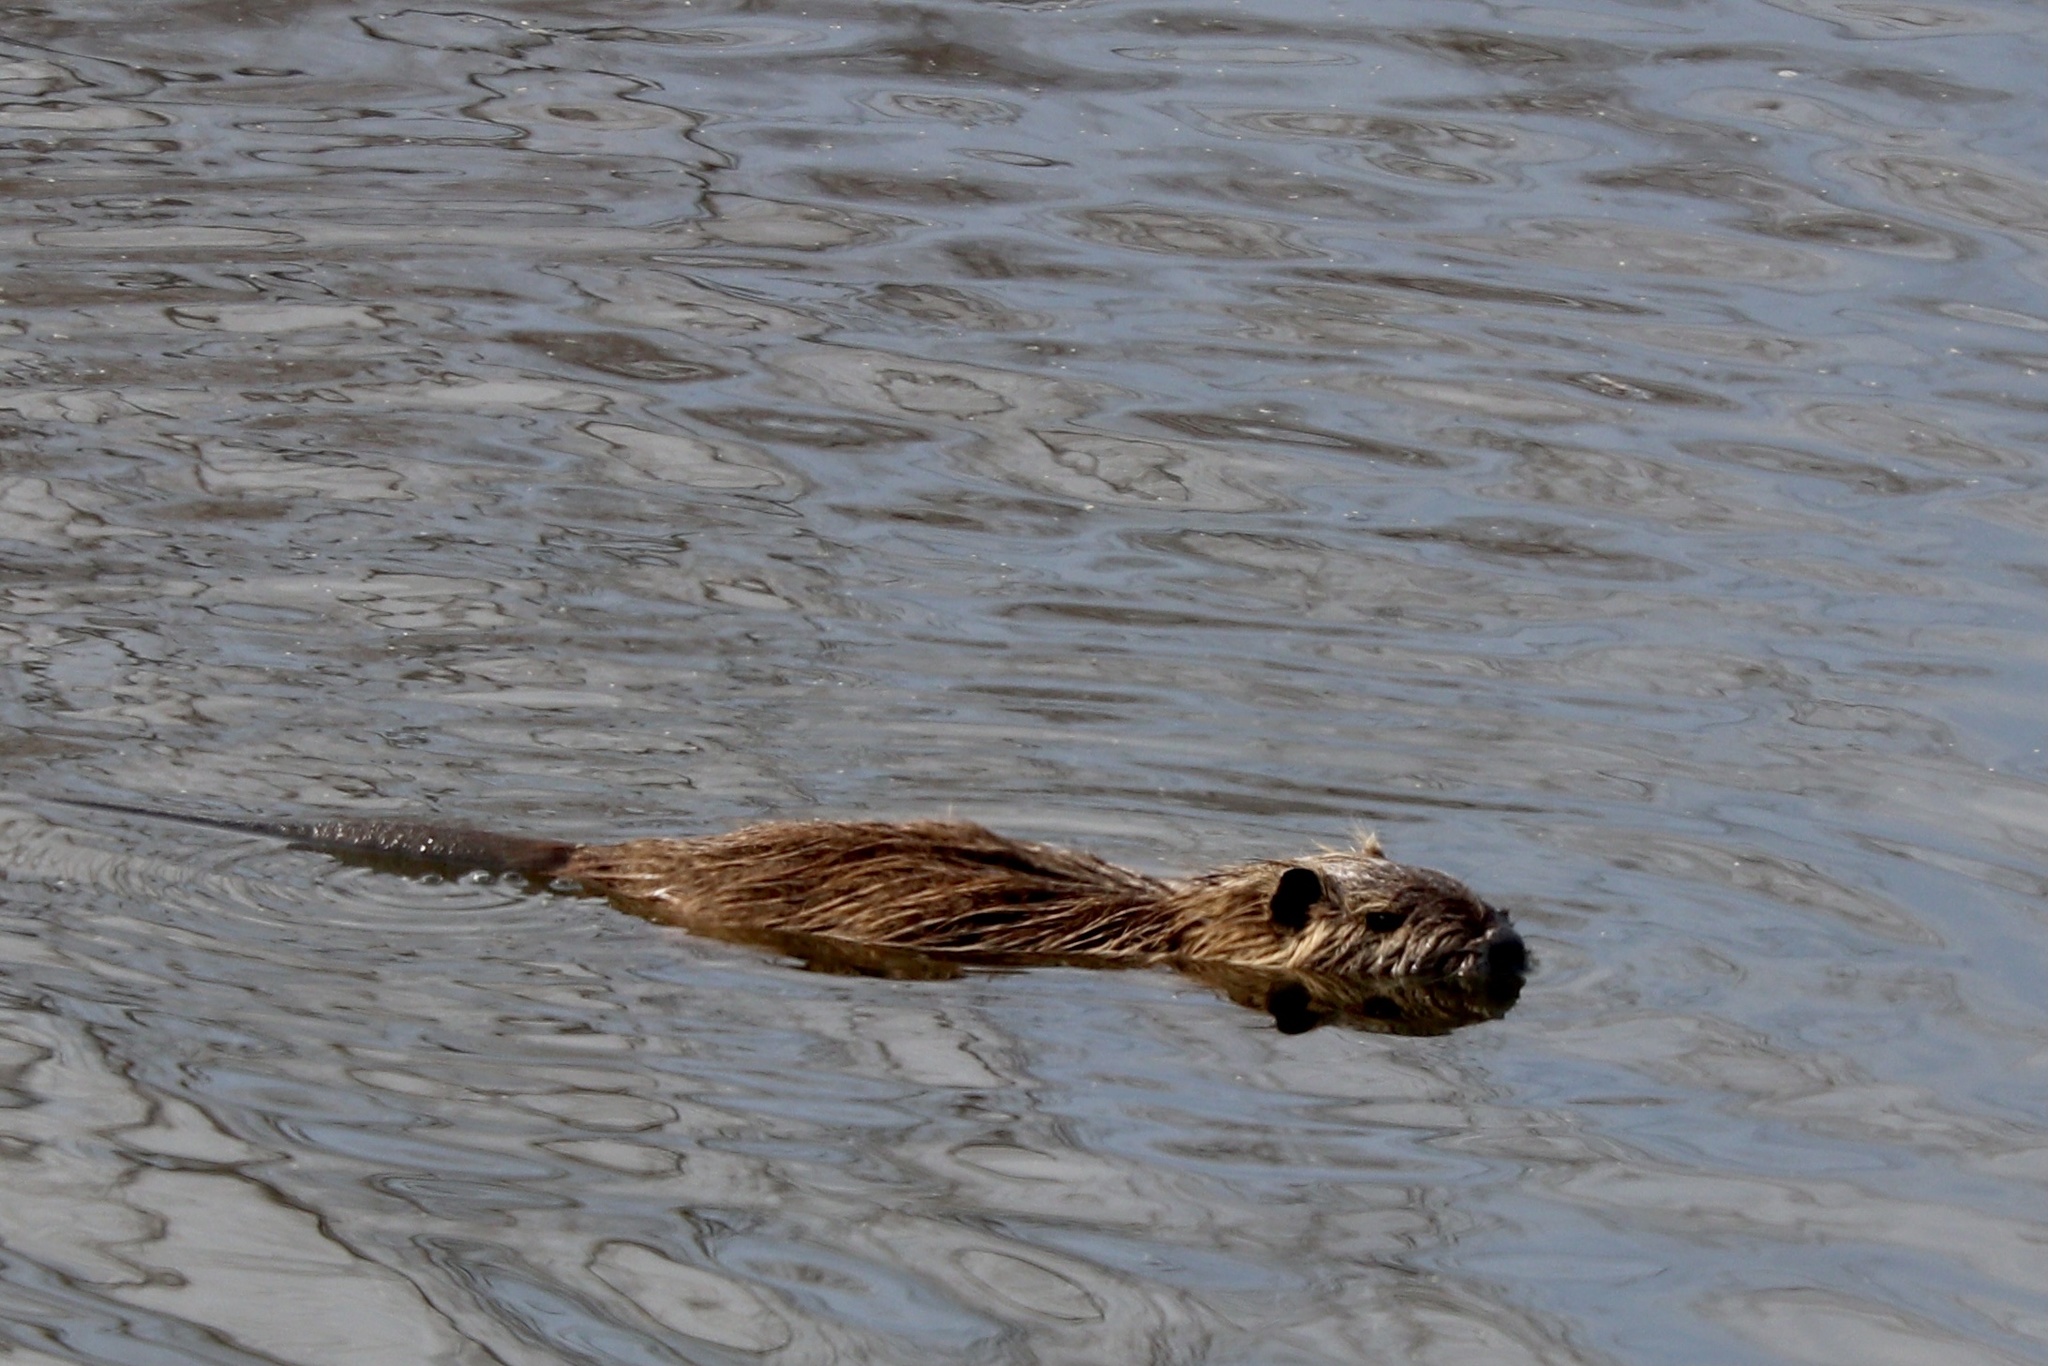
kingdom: Animalia
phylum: Chordata
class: Mammalia
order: Rodentia
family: Myocastoridae
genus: Myocastor
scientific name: Myocastor coypus
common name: Coypu
